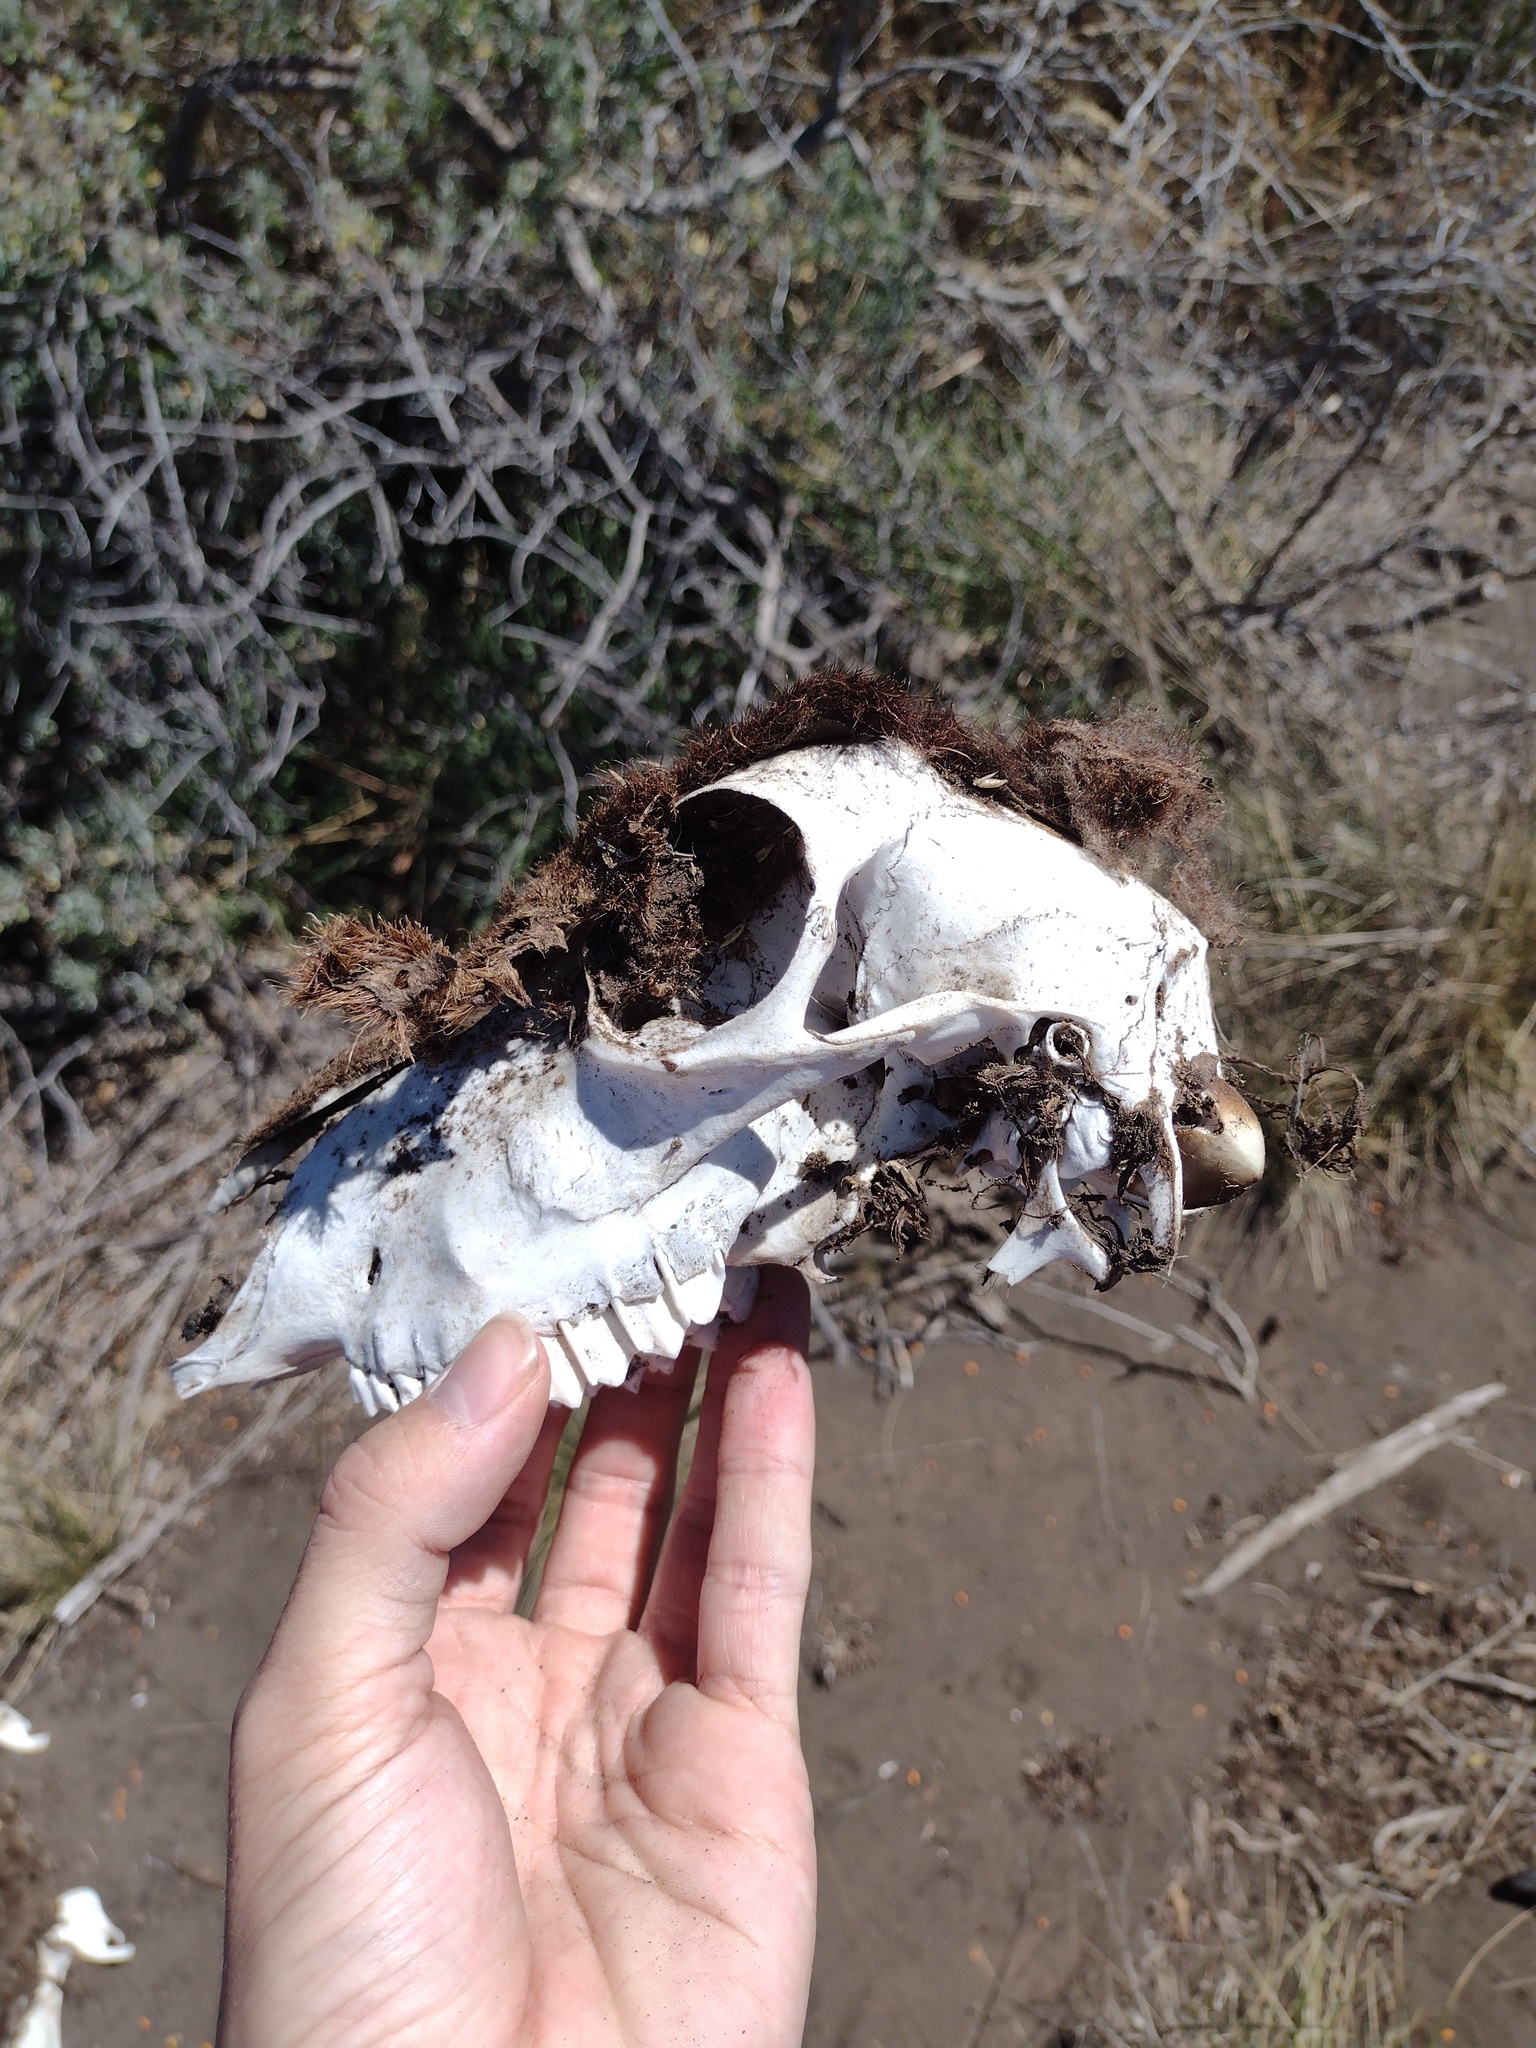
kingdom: Animalia
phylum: Chordata
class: Mammalia
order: Artiodactyla
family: Bovidae
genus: Capra
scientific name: Capra hircus
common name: Domestic goat
